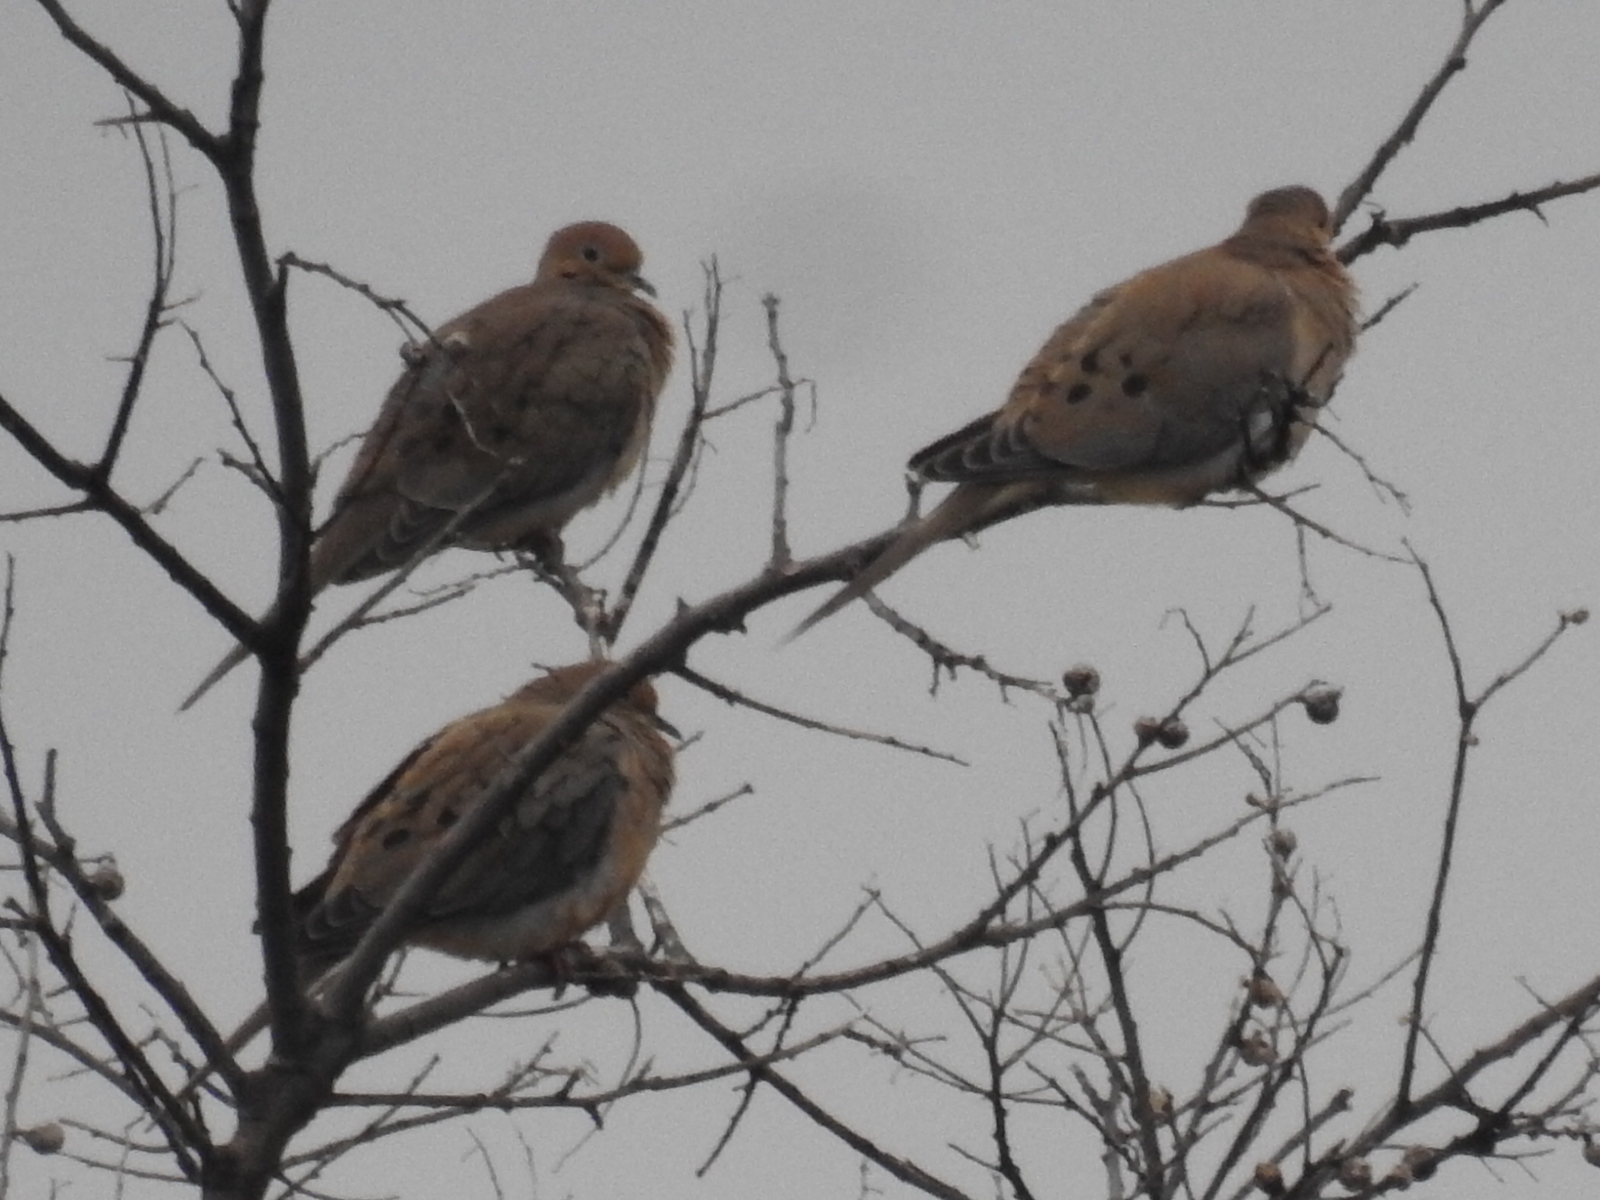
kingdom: Animalia
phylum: Chordata
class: Aves
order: Columbiformes
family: Columbidae
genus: Zenaida
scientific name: Zenaida macroura
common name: Mourning dove
